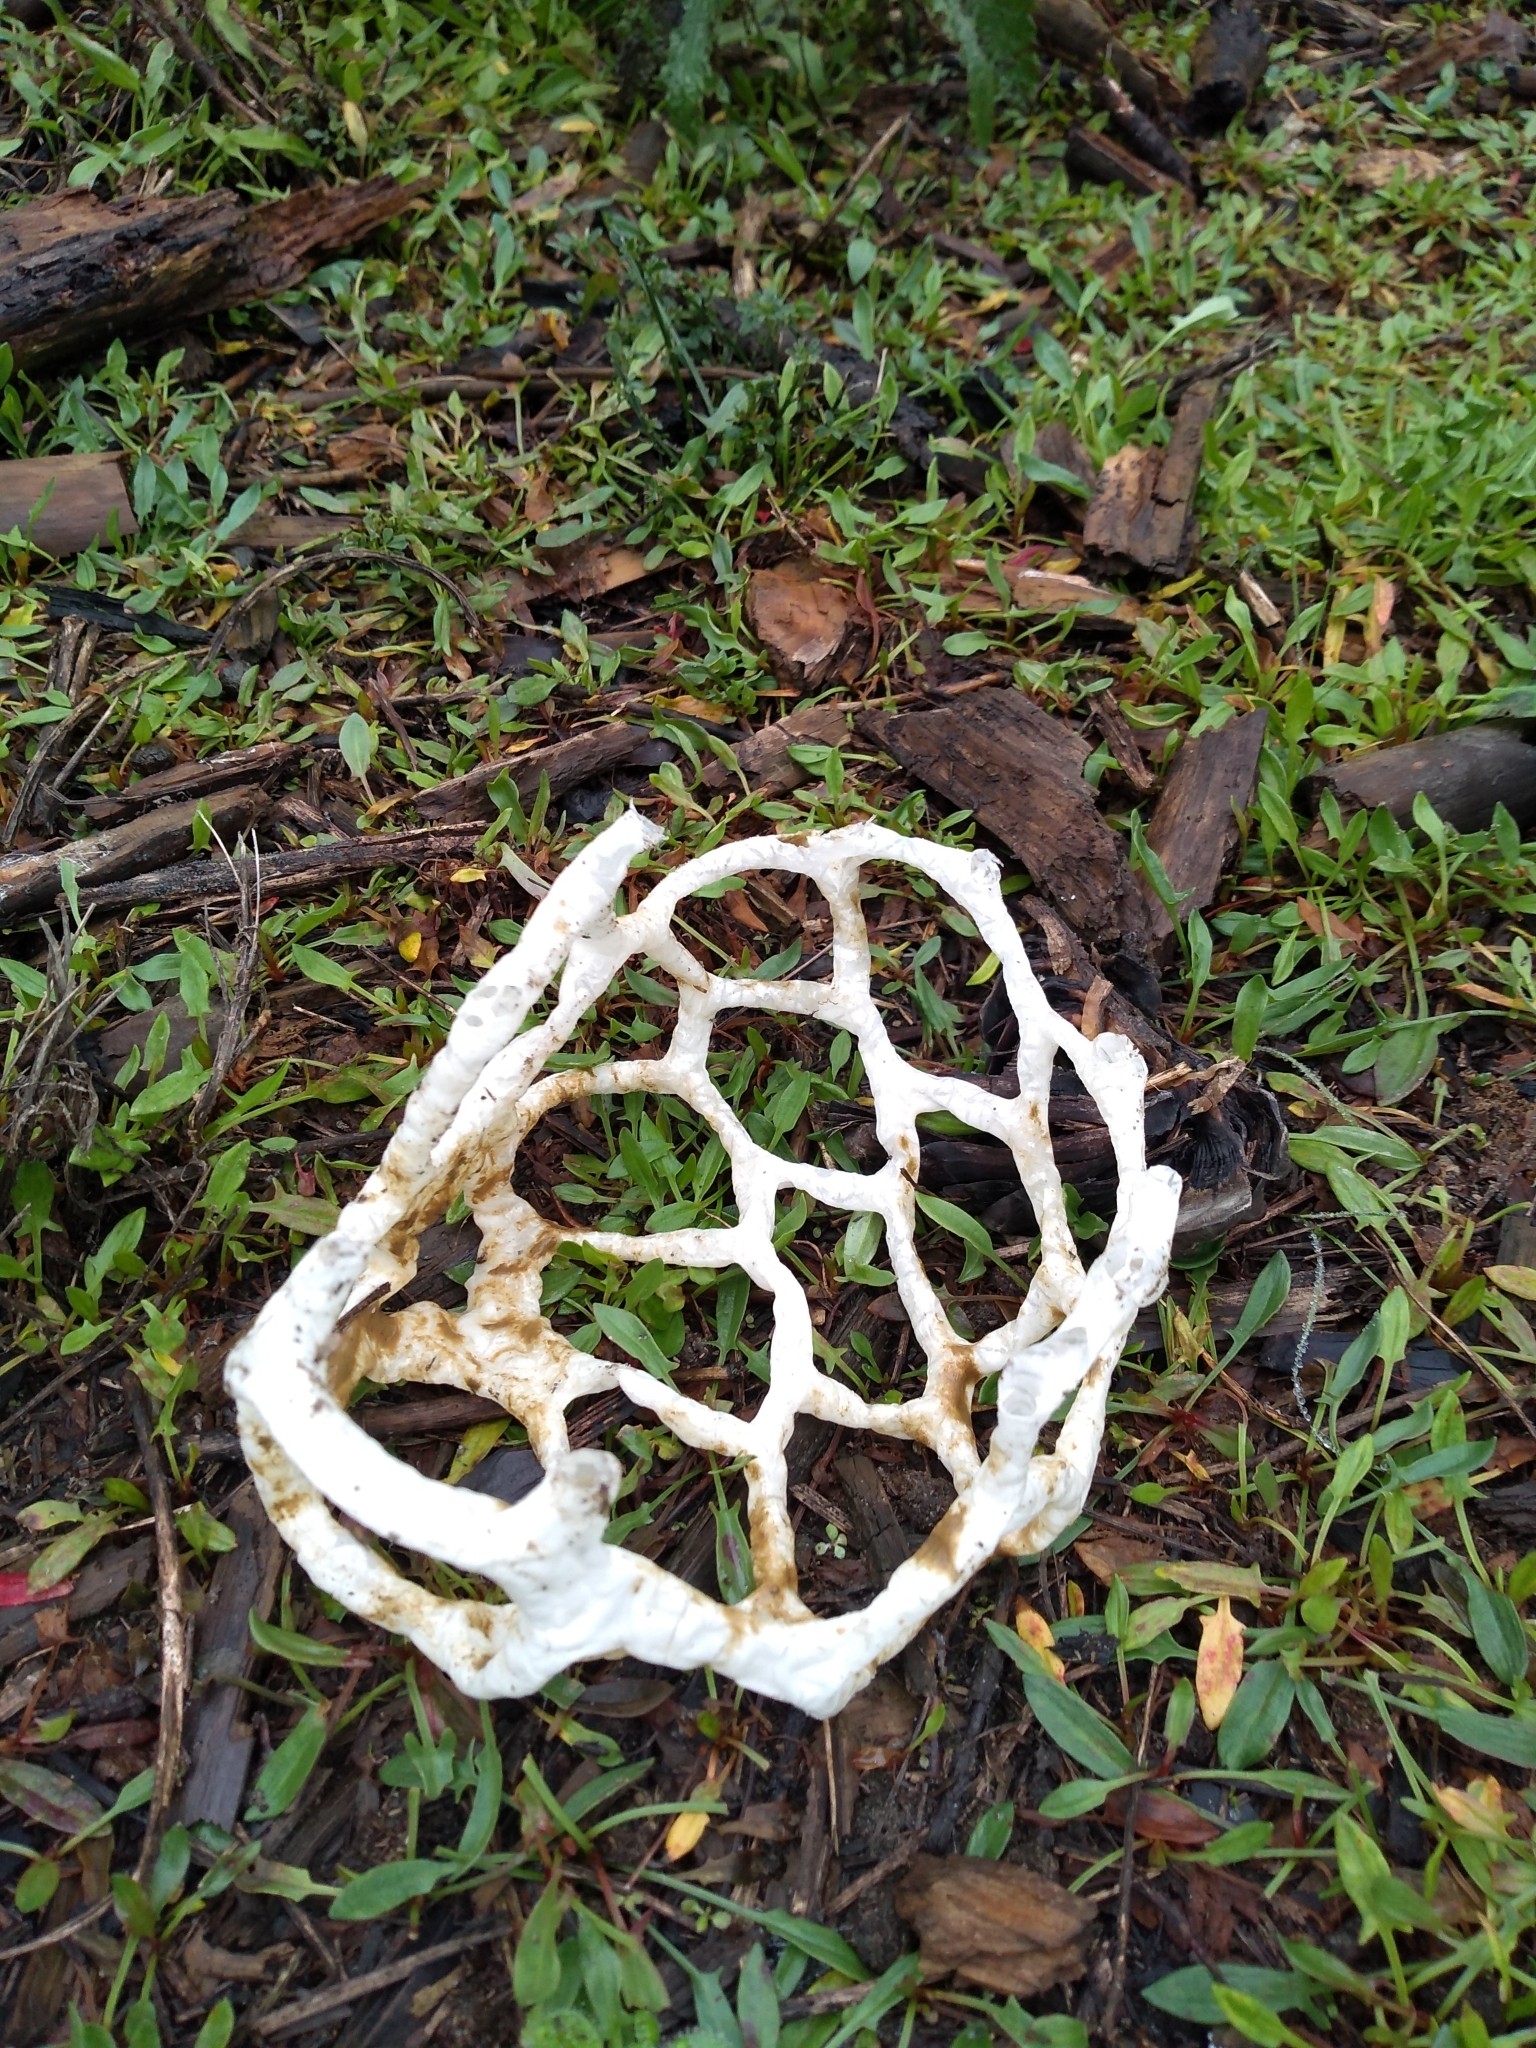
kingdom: Fungi
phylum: Basidiomycota
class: Agaricomycetes
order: Phallales
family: Phallaceae
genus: Ileodictyon
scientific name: Ileodictyon cibarium
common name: Basket fungus
